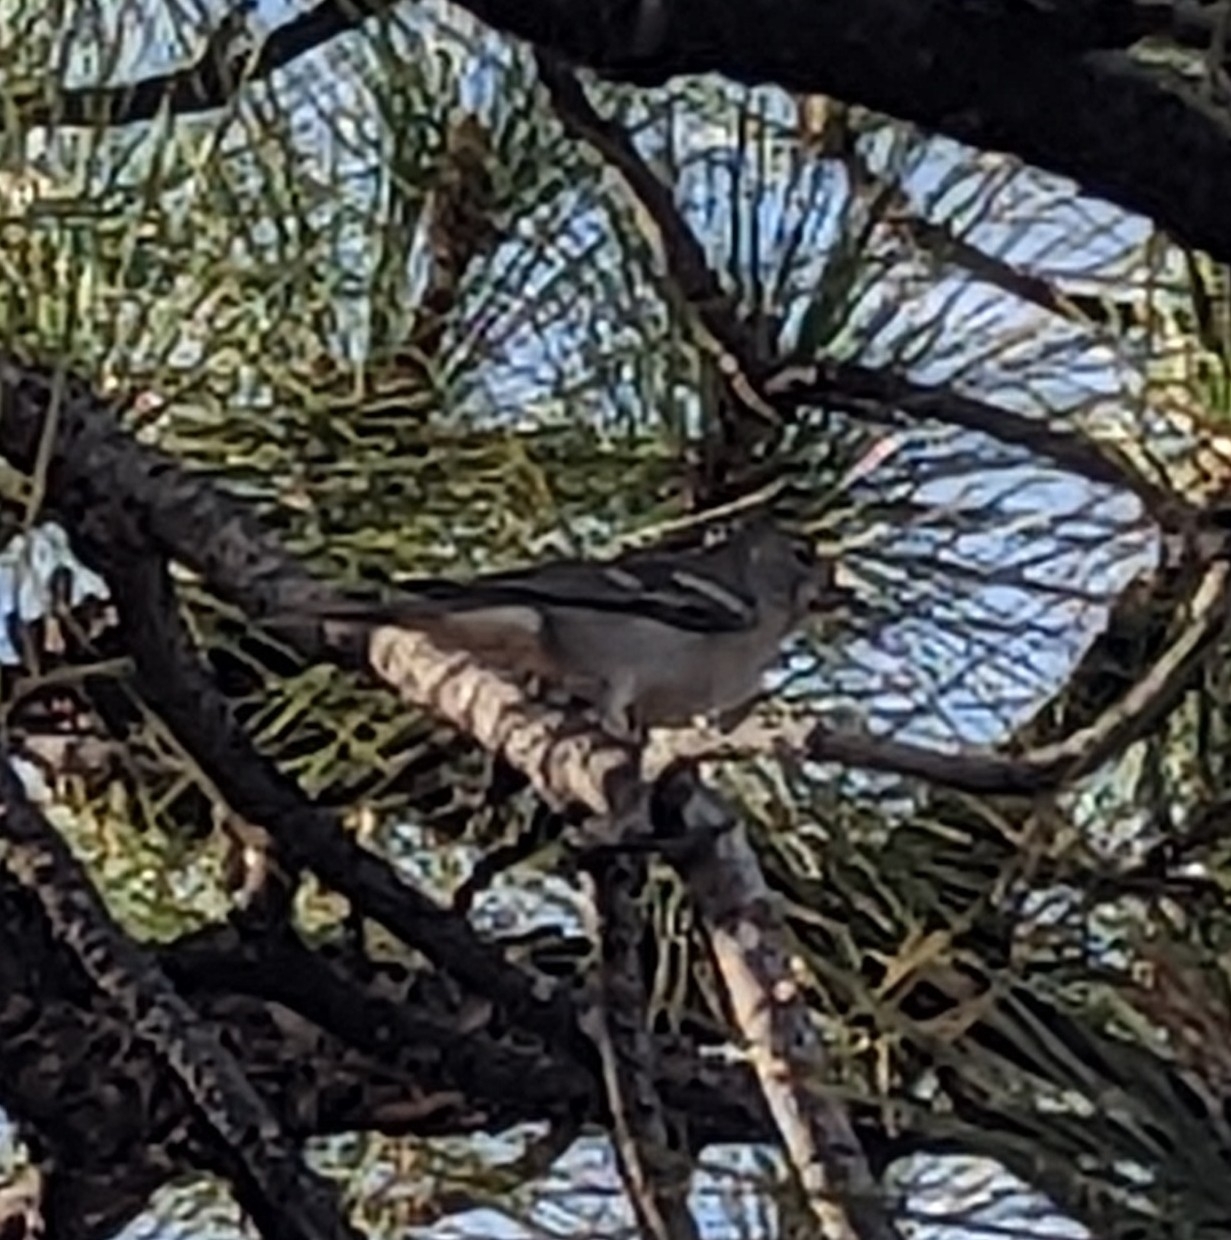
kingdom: Animalia
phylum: Chordata
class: Aves
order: Passeriformes
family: Fringillidae
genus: Fringilla
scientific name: Fringilla teydea
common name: Blue chaffinch
